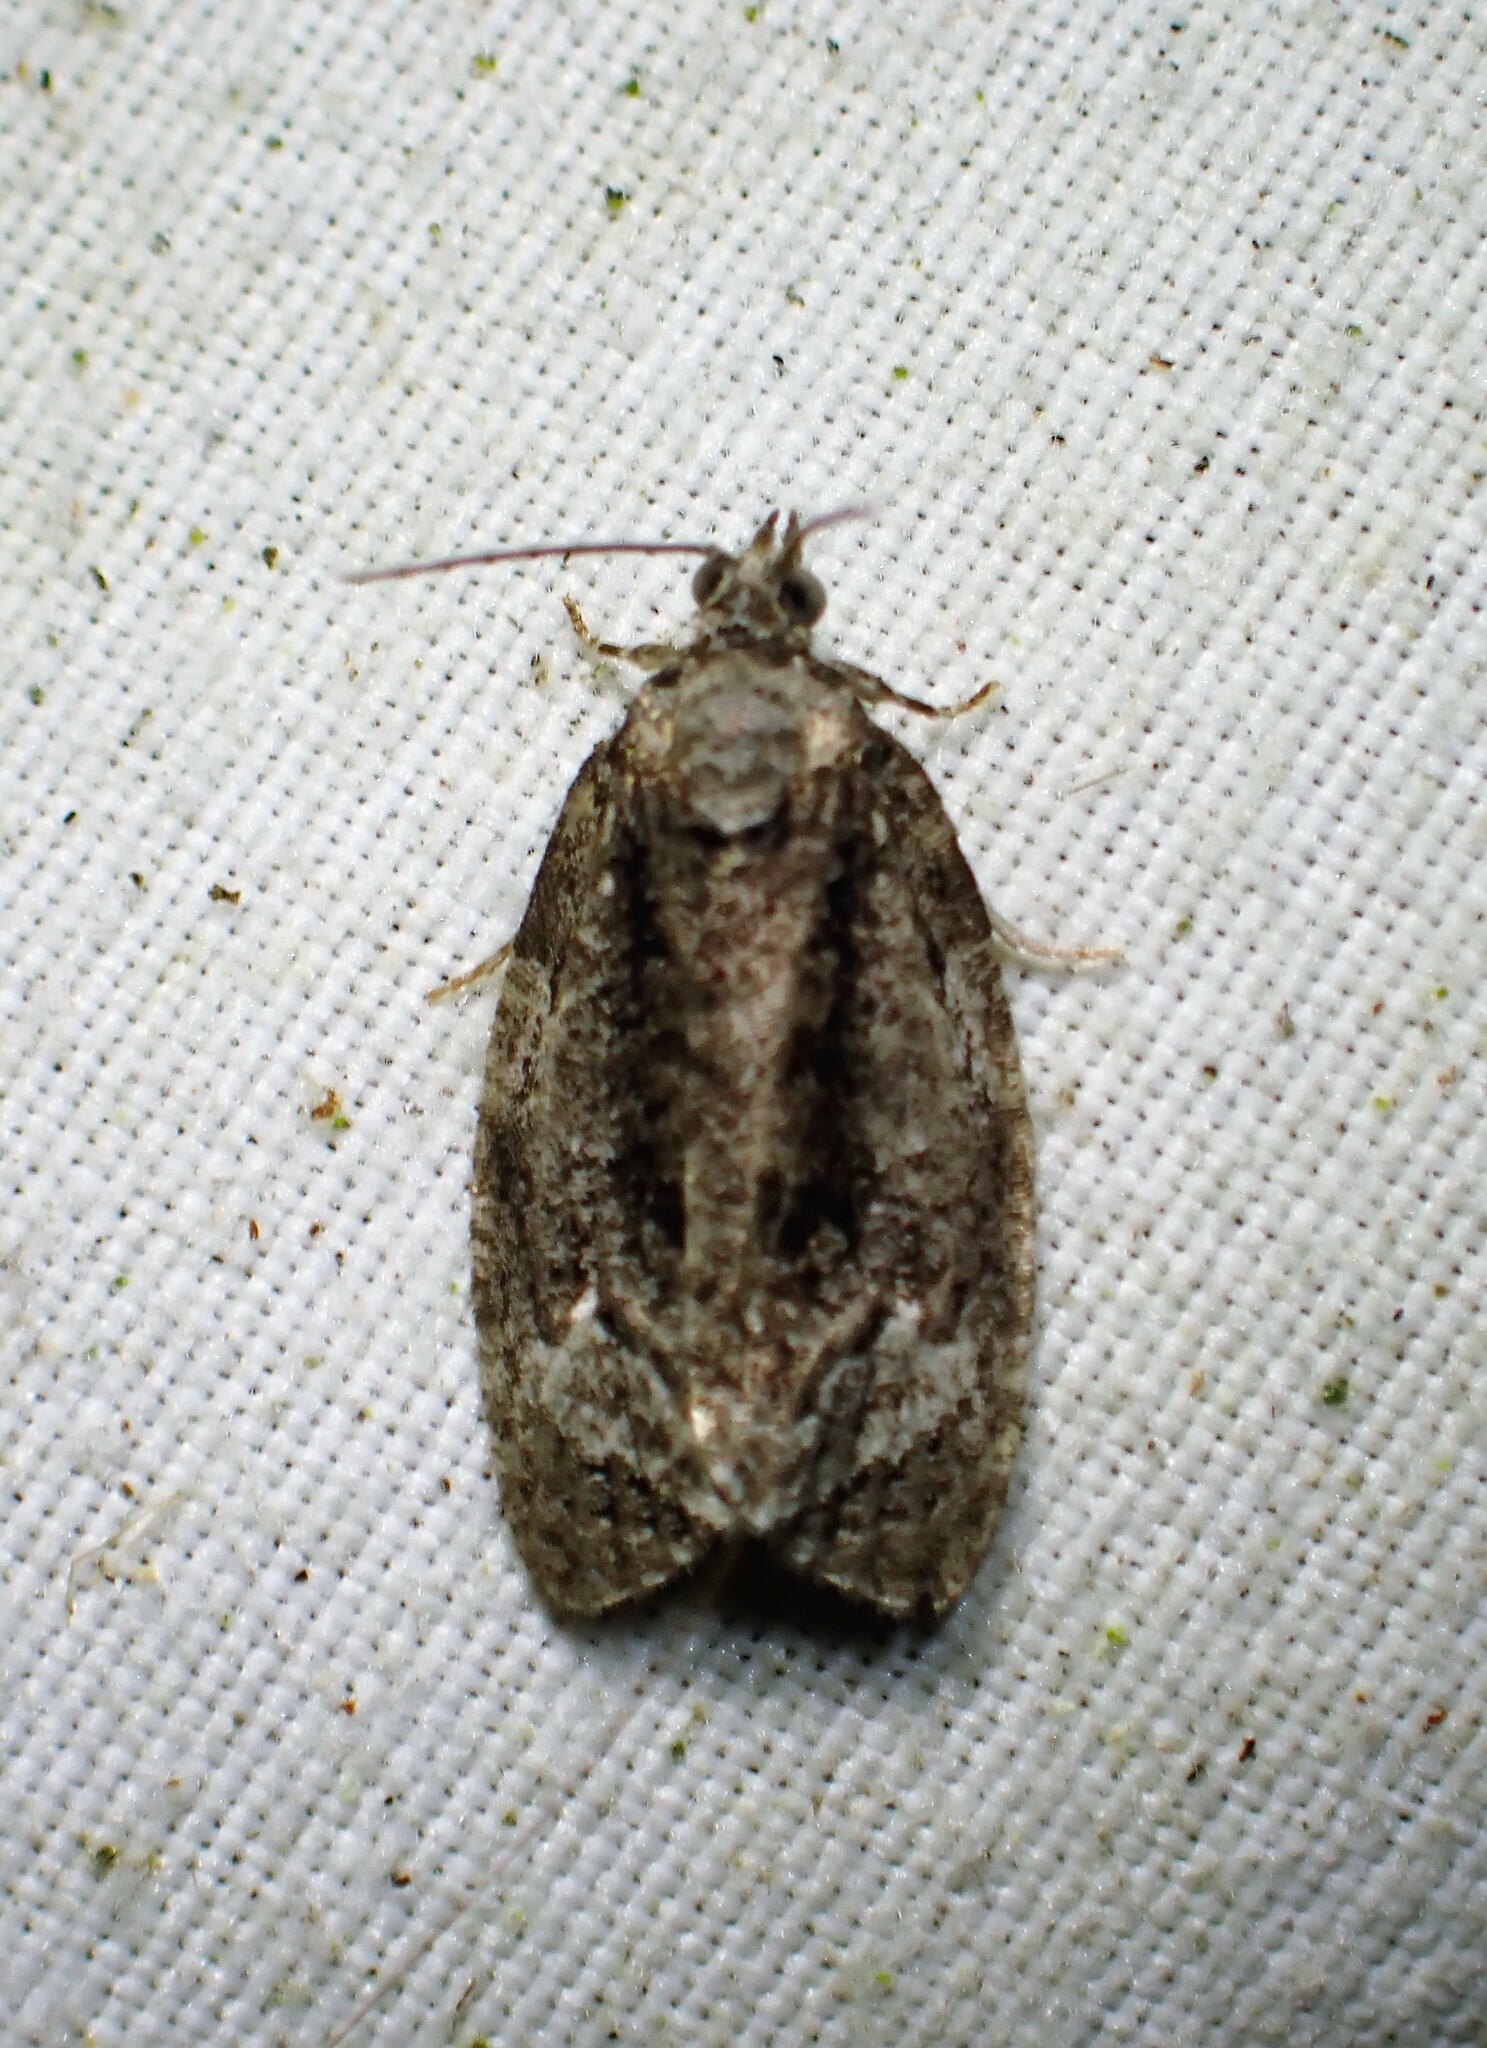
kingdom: Animalia
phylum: Arthropoda
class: Insecta
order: Lepidoptera
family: Tortricidae
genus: Apotomis
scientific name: Apotomis removana
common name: Green aspen leafroller
